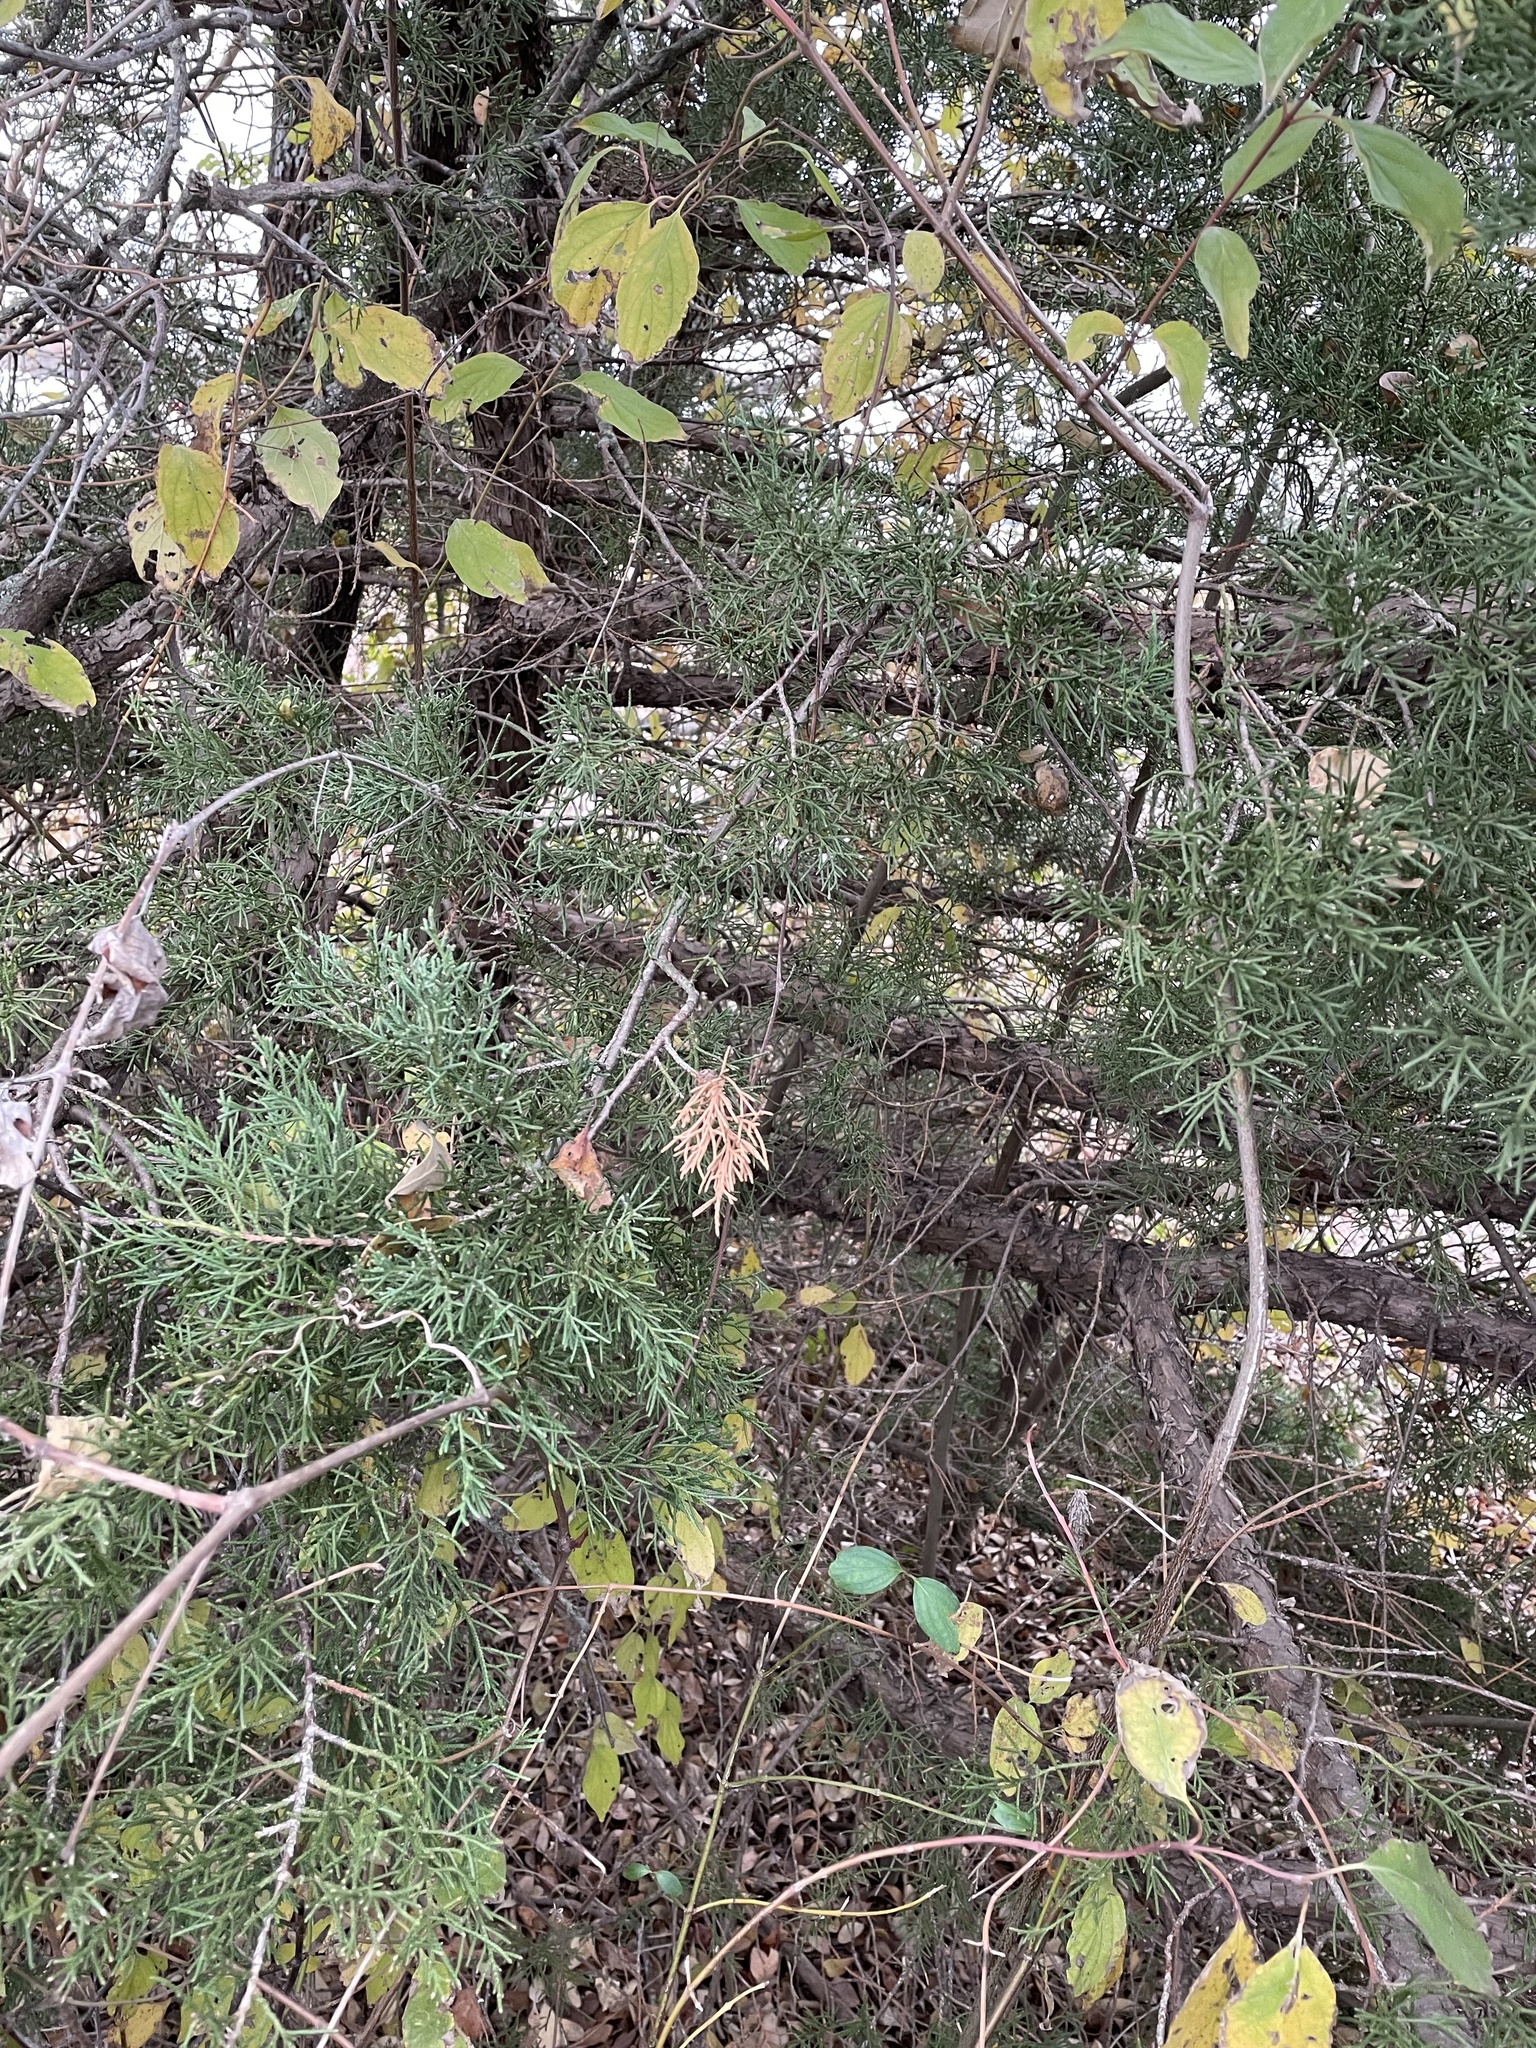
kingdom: Plantae
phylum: Tracheophyta
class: Pinopsida
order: Pinales
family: Cupressaceae
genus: Juniperus
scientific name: Juniperus virginiana
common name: Red juniper
